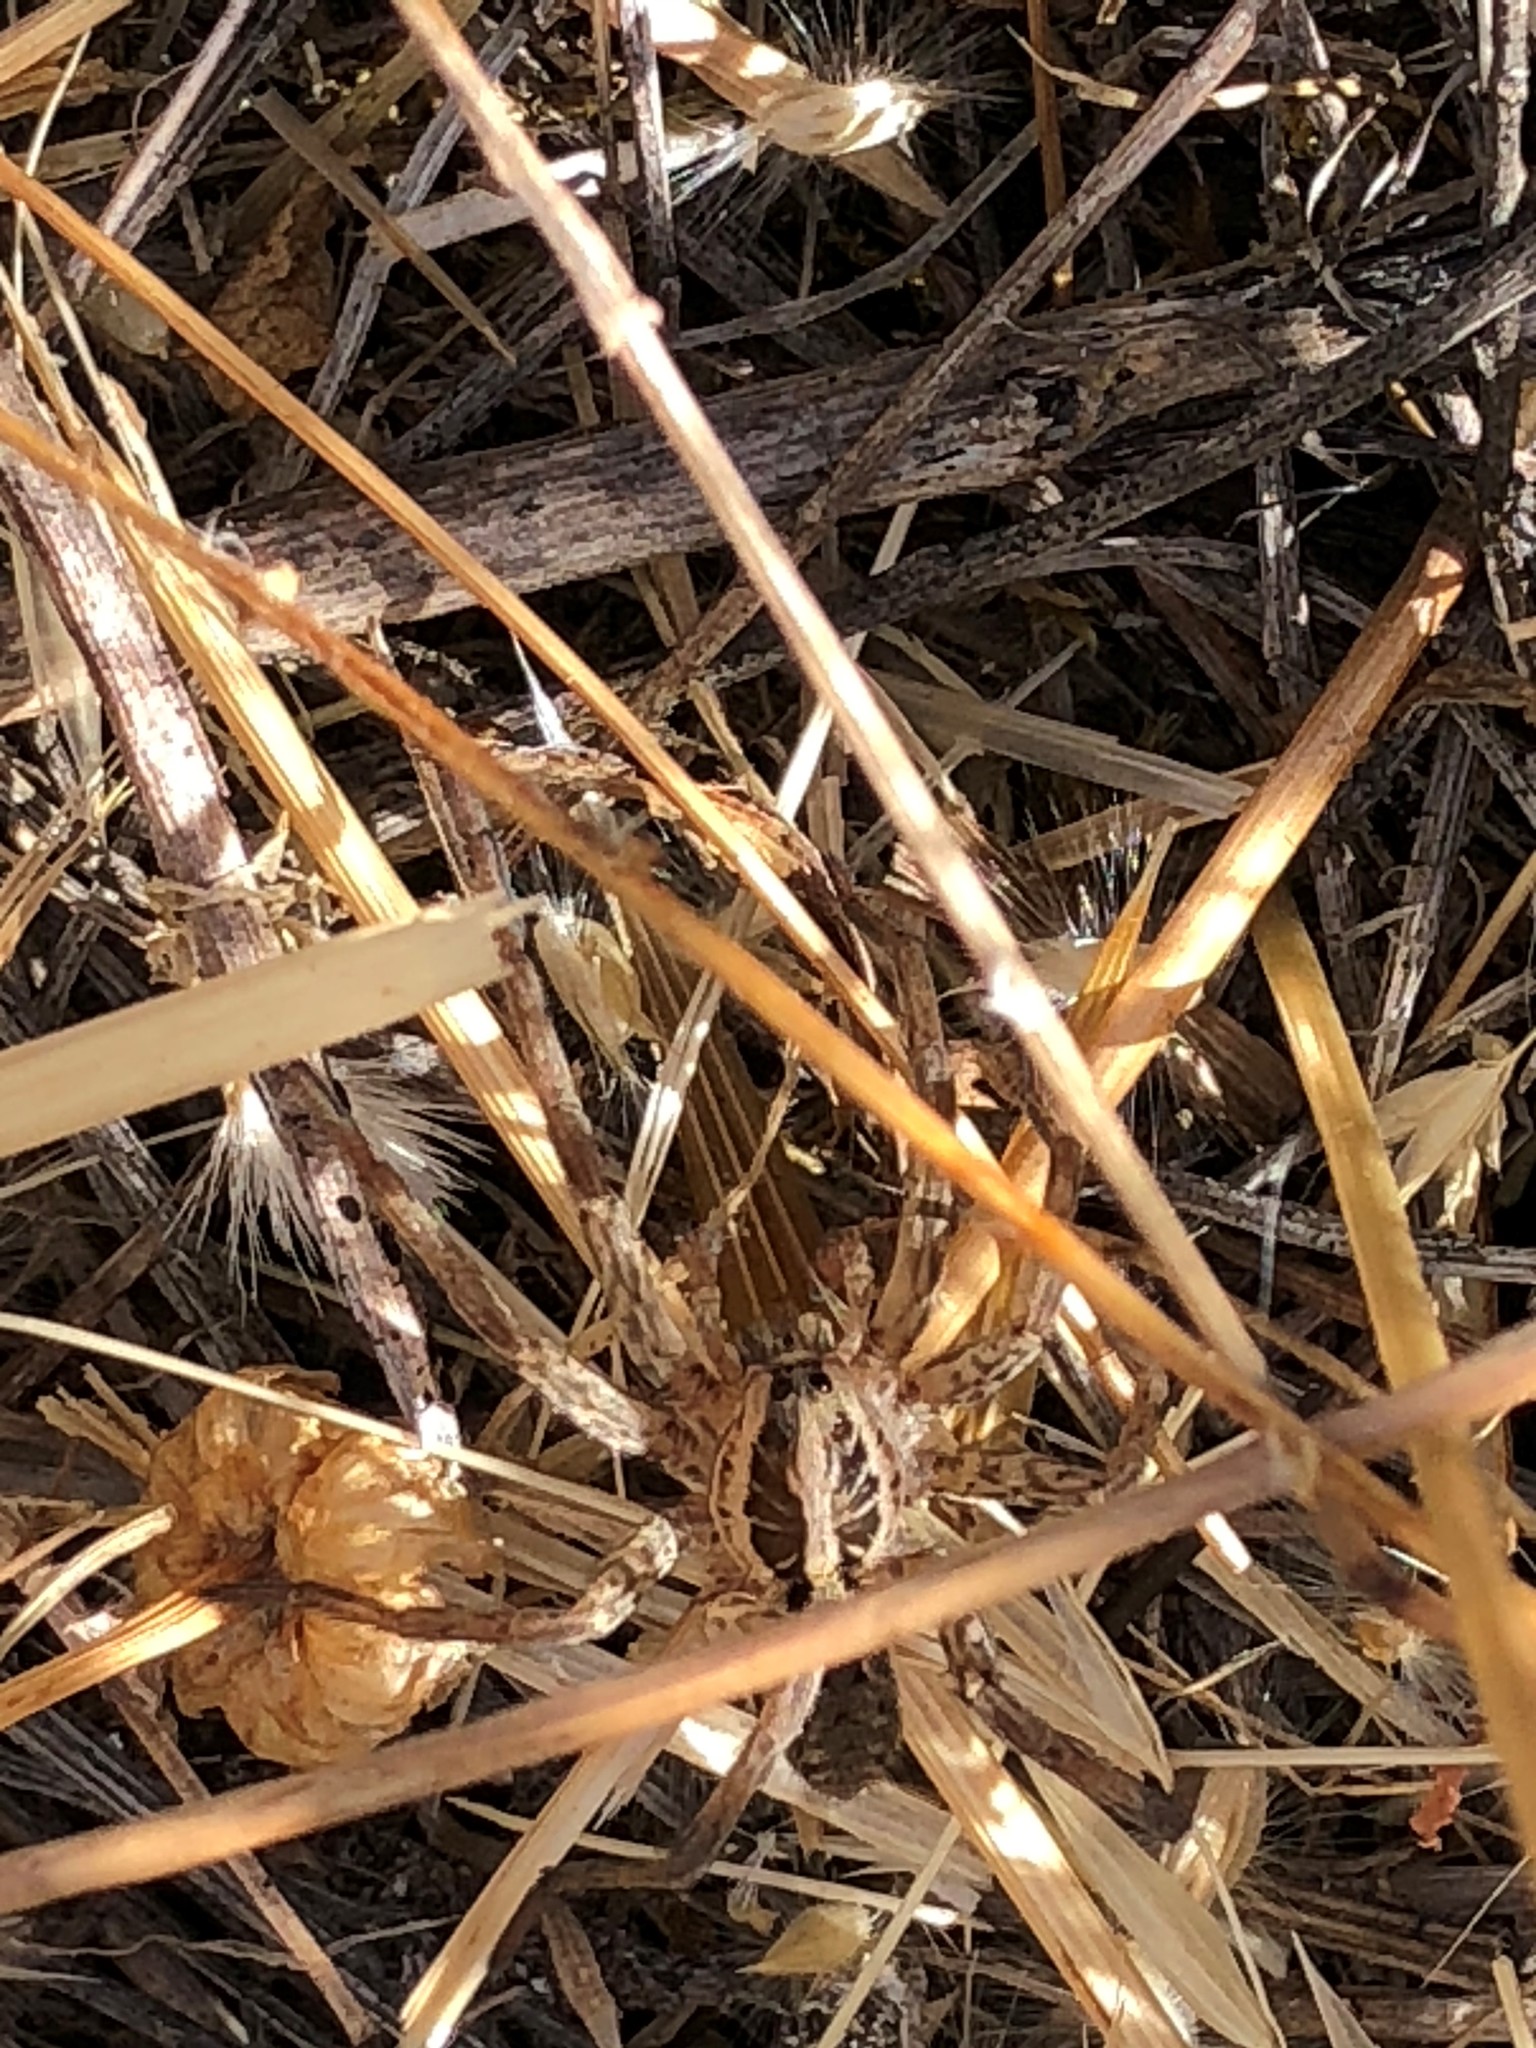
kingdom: Animalia
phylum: Arthropoda
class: Arachnida
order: Araneae
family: Lycosidae
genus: Hogna
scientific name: Hogna radiata
